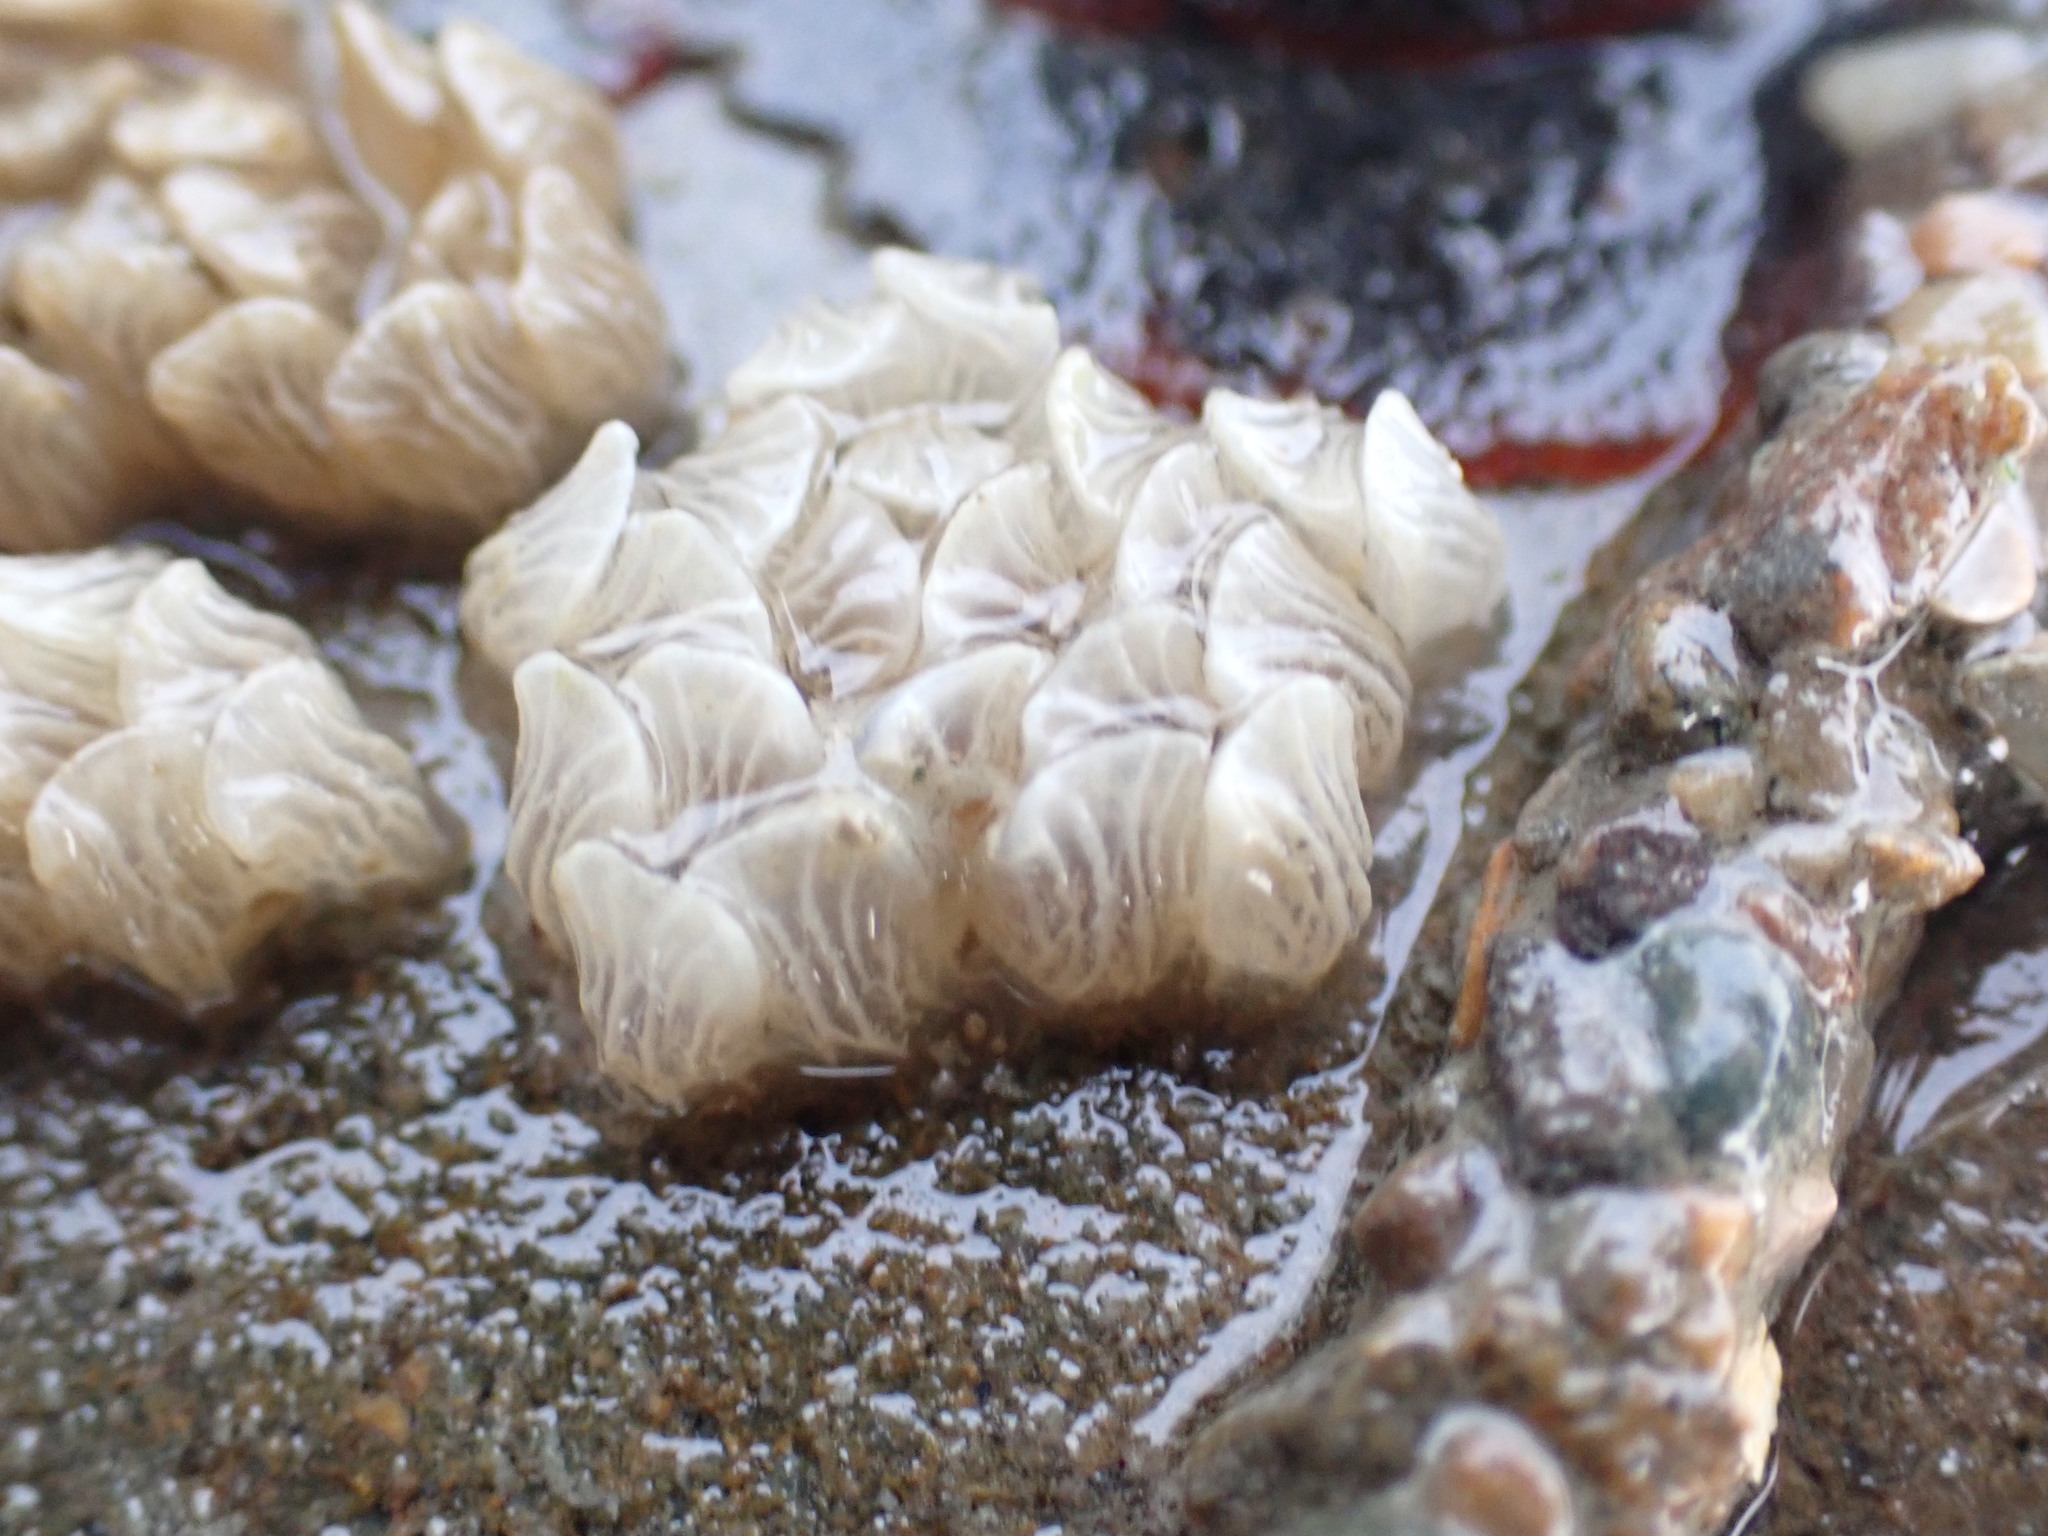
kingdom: Animalia
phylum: Mollusca
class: Gastropoda
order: Neogastropoda
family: Cominellidae
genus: Cominella
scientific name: Cominella virgata
